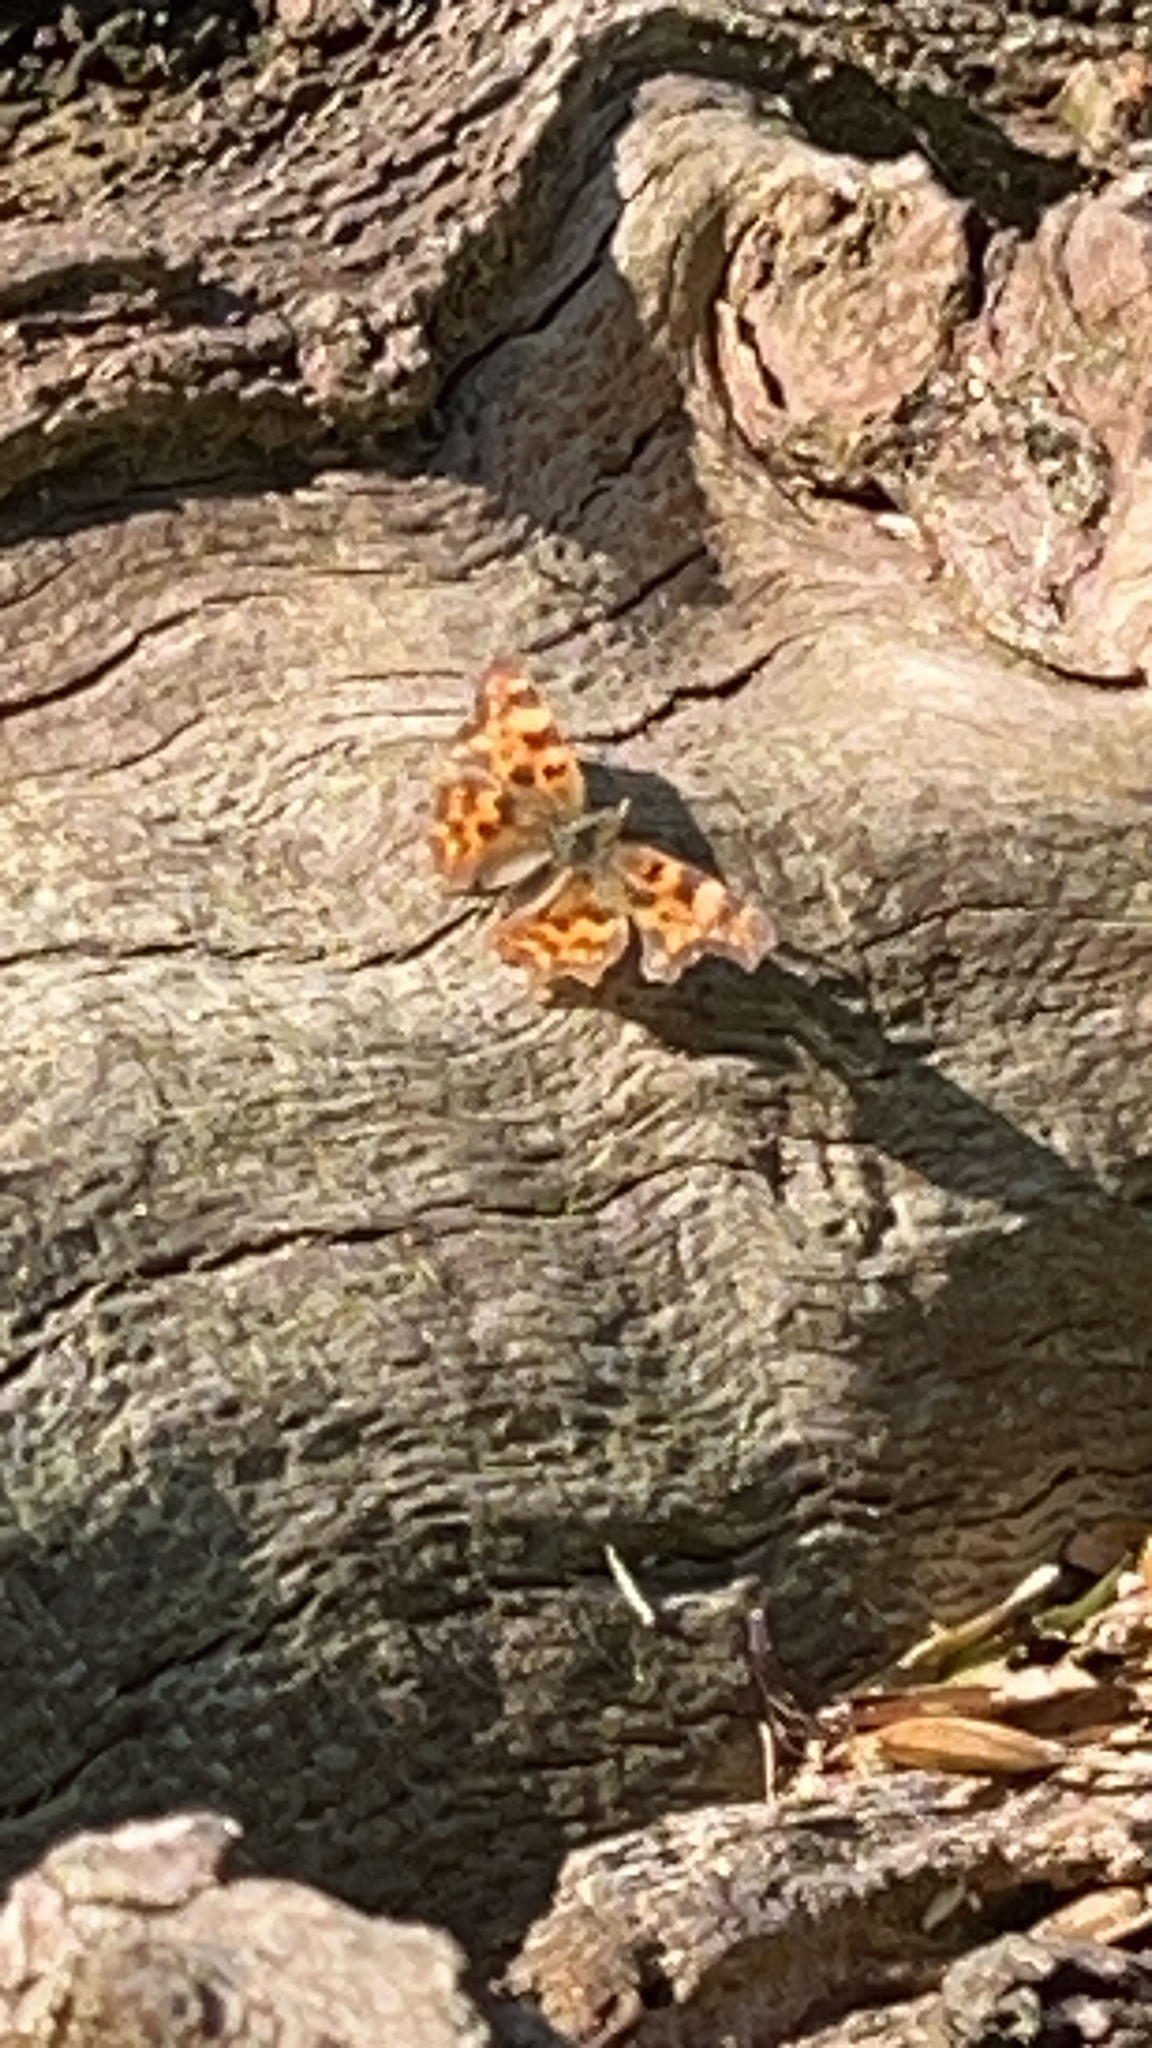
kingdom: Animalia
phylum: Arthropoda
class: Insecta
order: Lepidoptera
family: Nymphalidae
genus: Polygonia
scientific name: Polygonia c-album
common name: Comma
